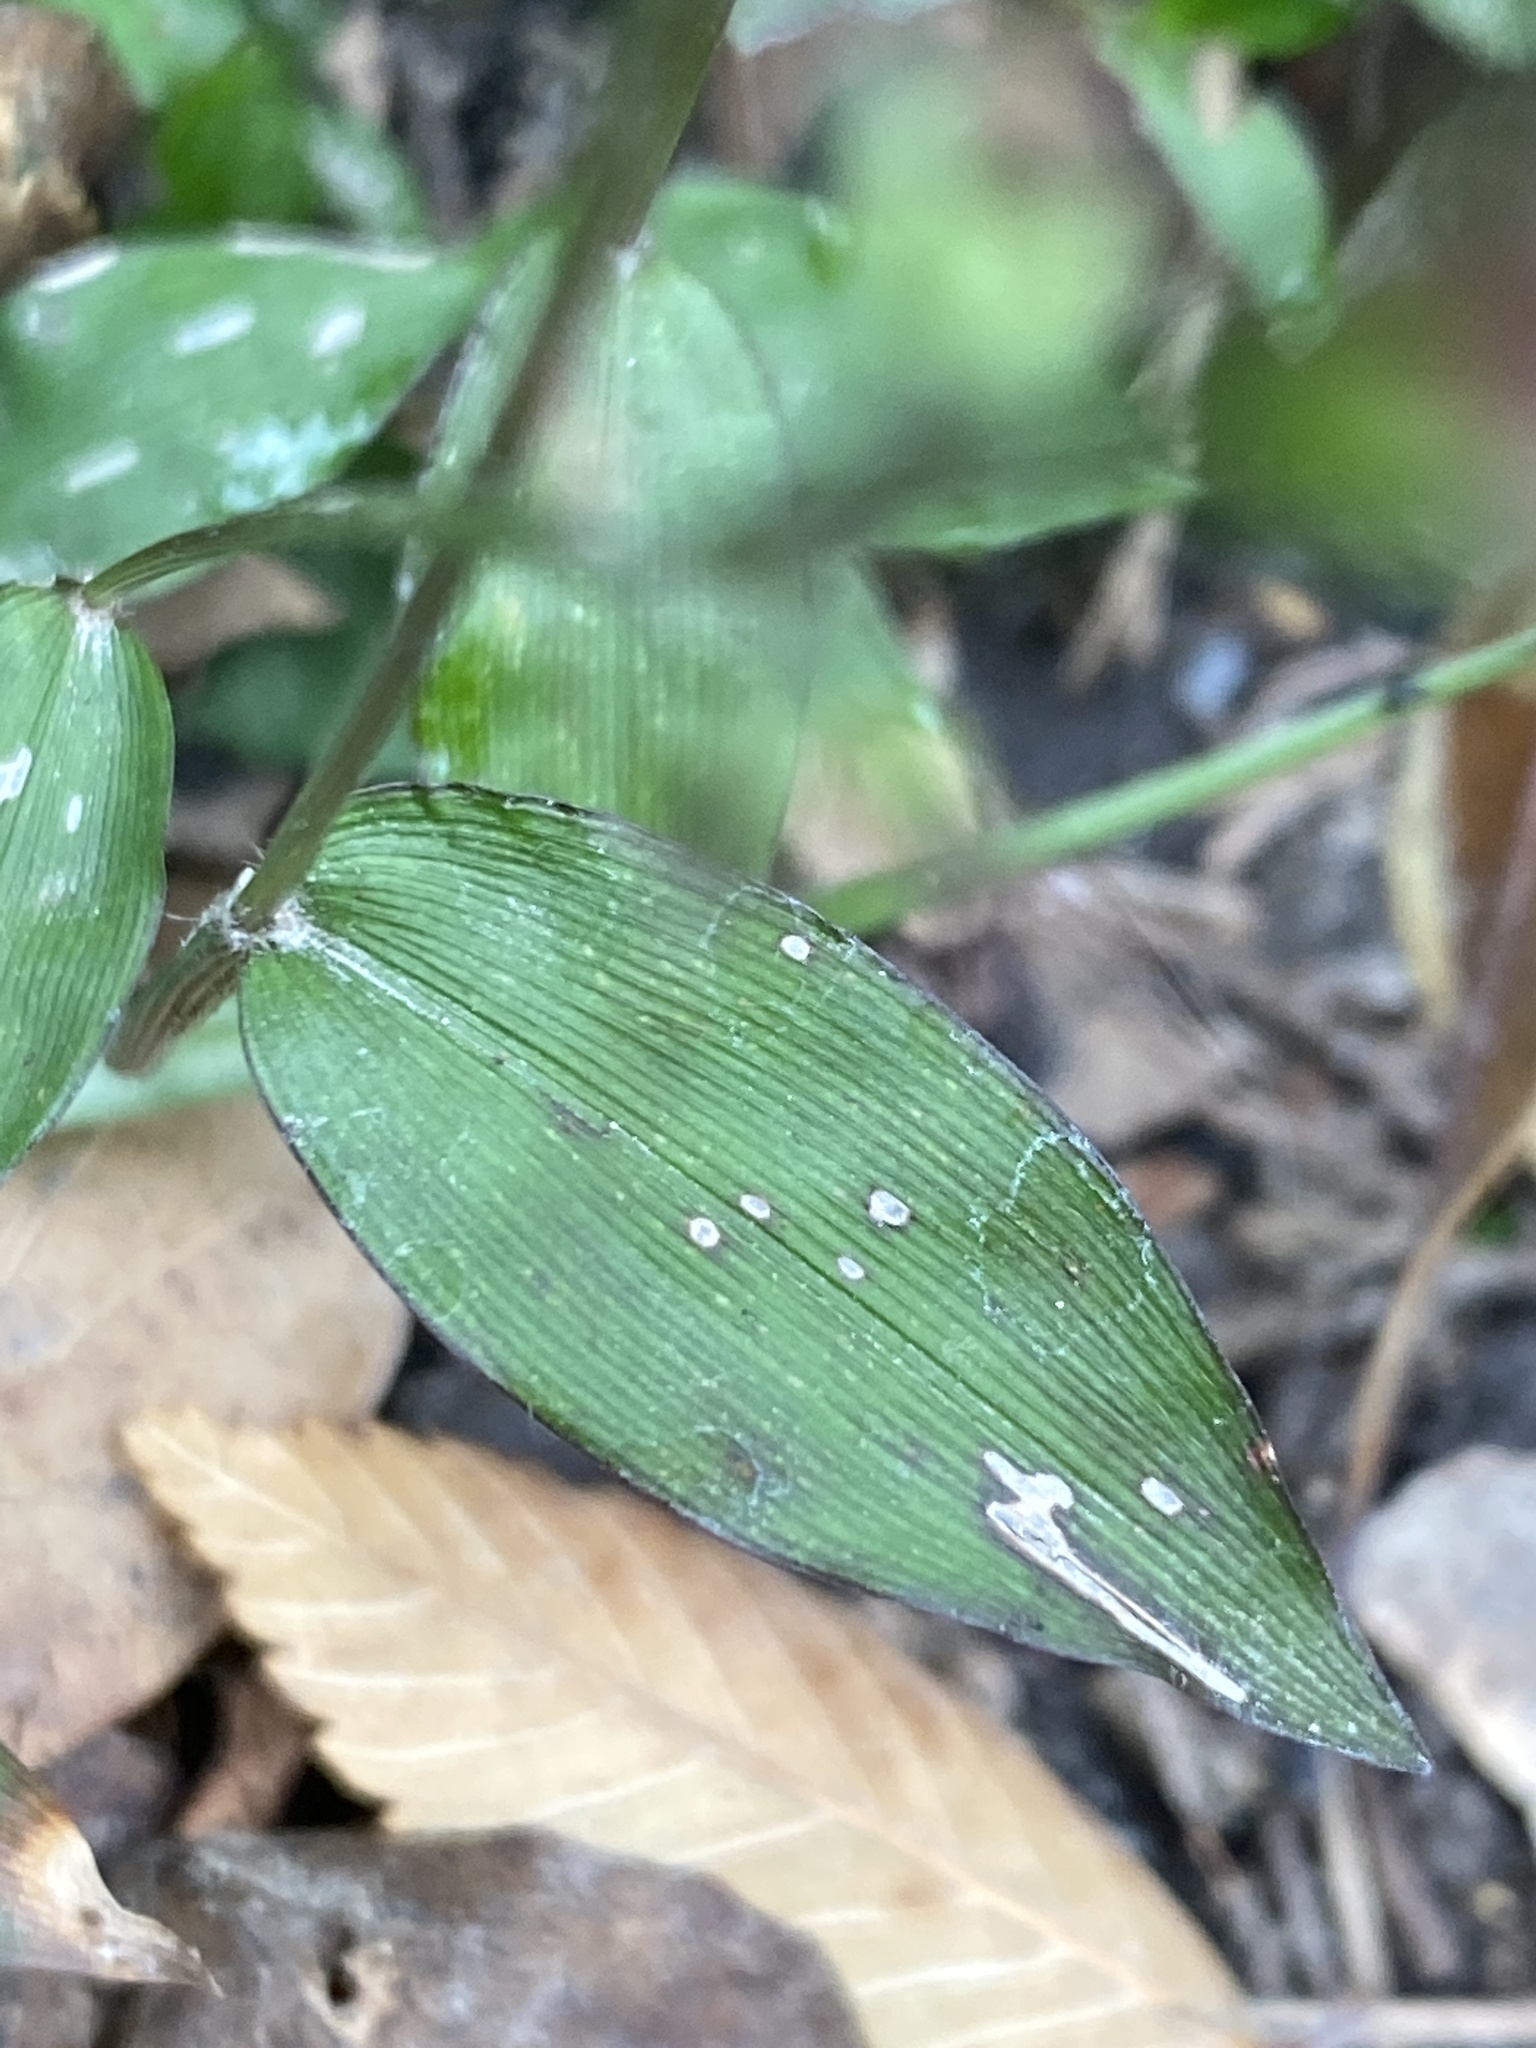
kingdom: Plantae
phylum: Tracheophyta
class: Liliopsida
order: Poales
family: Poaceae
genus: Oplismenus
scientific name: Oplismenus hirtellus
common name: Basketgrass
